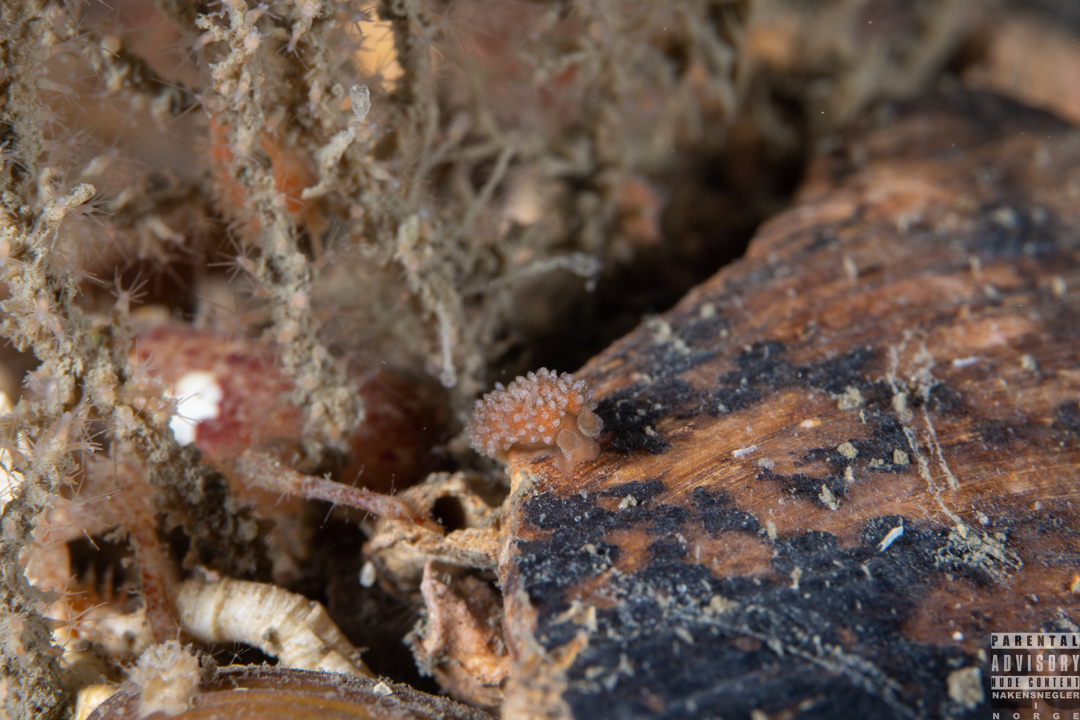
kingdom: Animalia
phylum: Mollusca
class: Gastropoda
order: Nudibranchia
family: Dotidae
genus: Doto
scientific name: Doto fragilis
